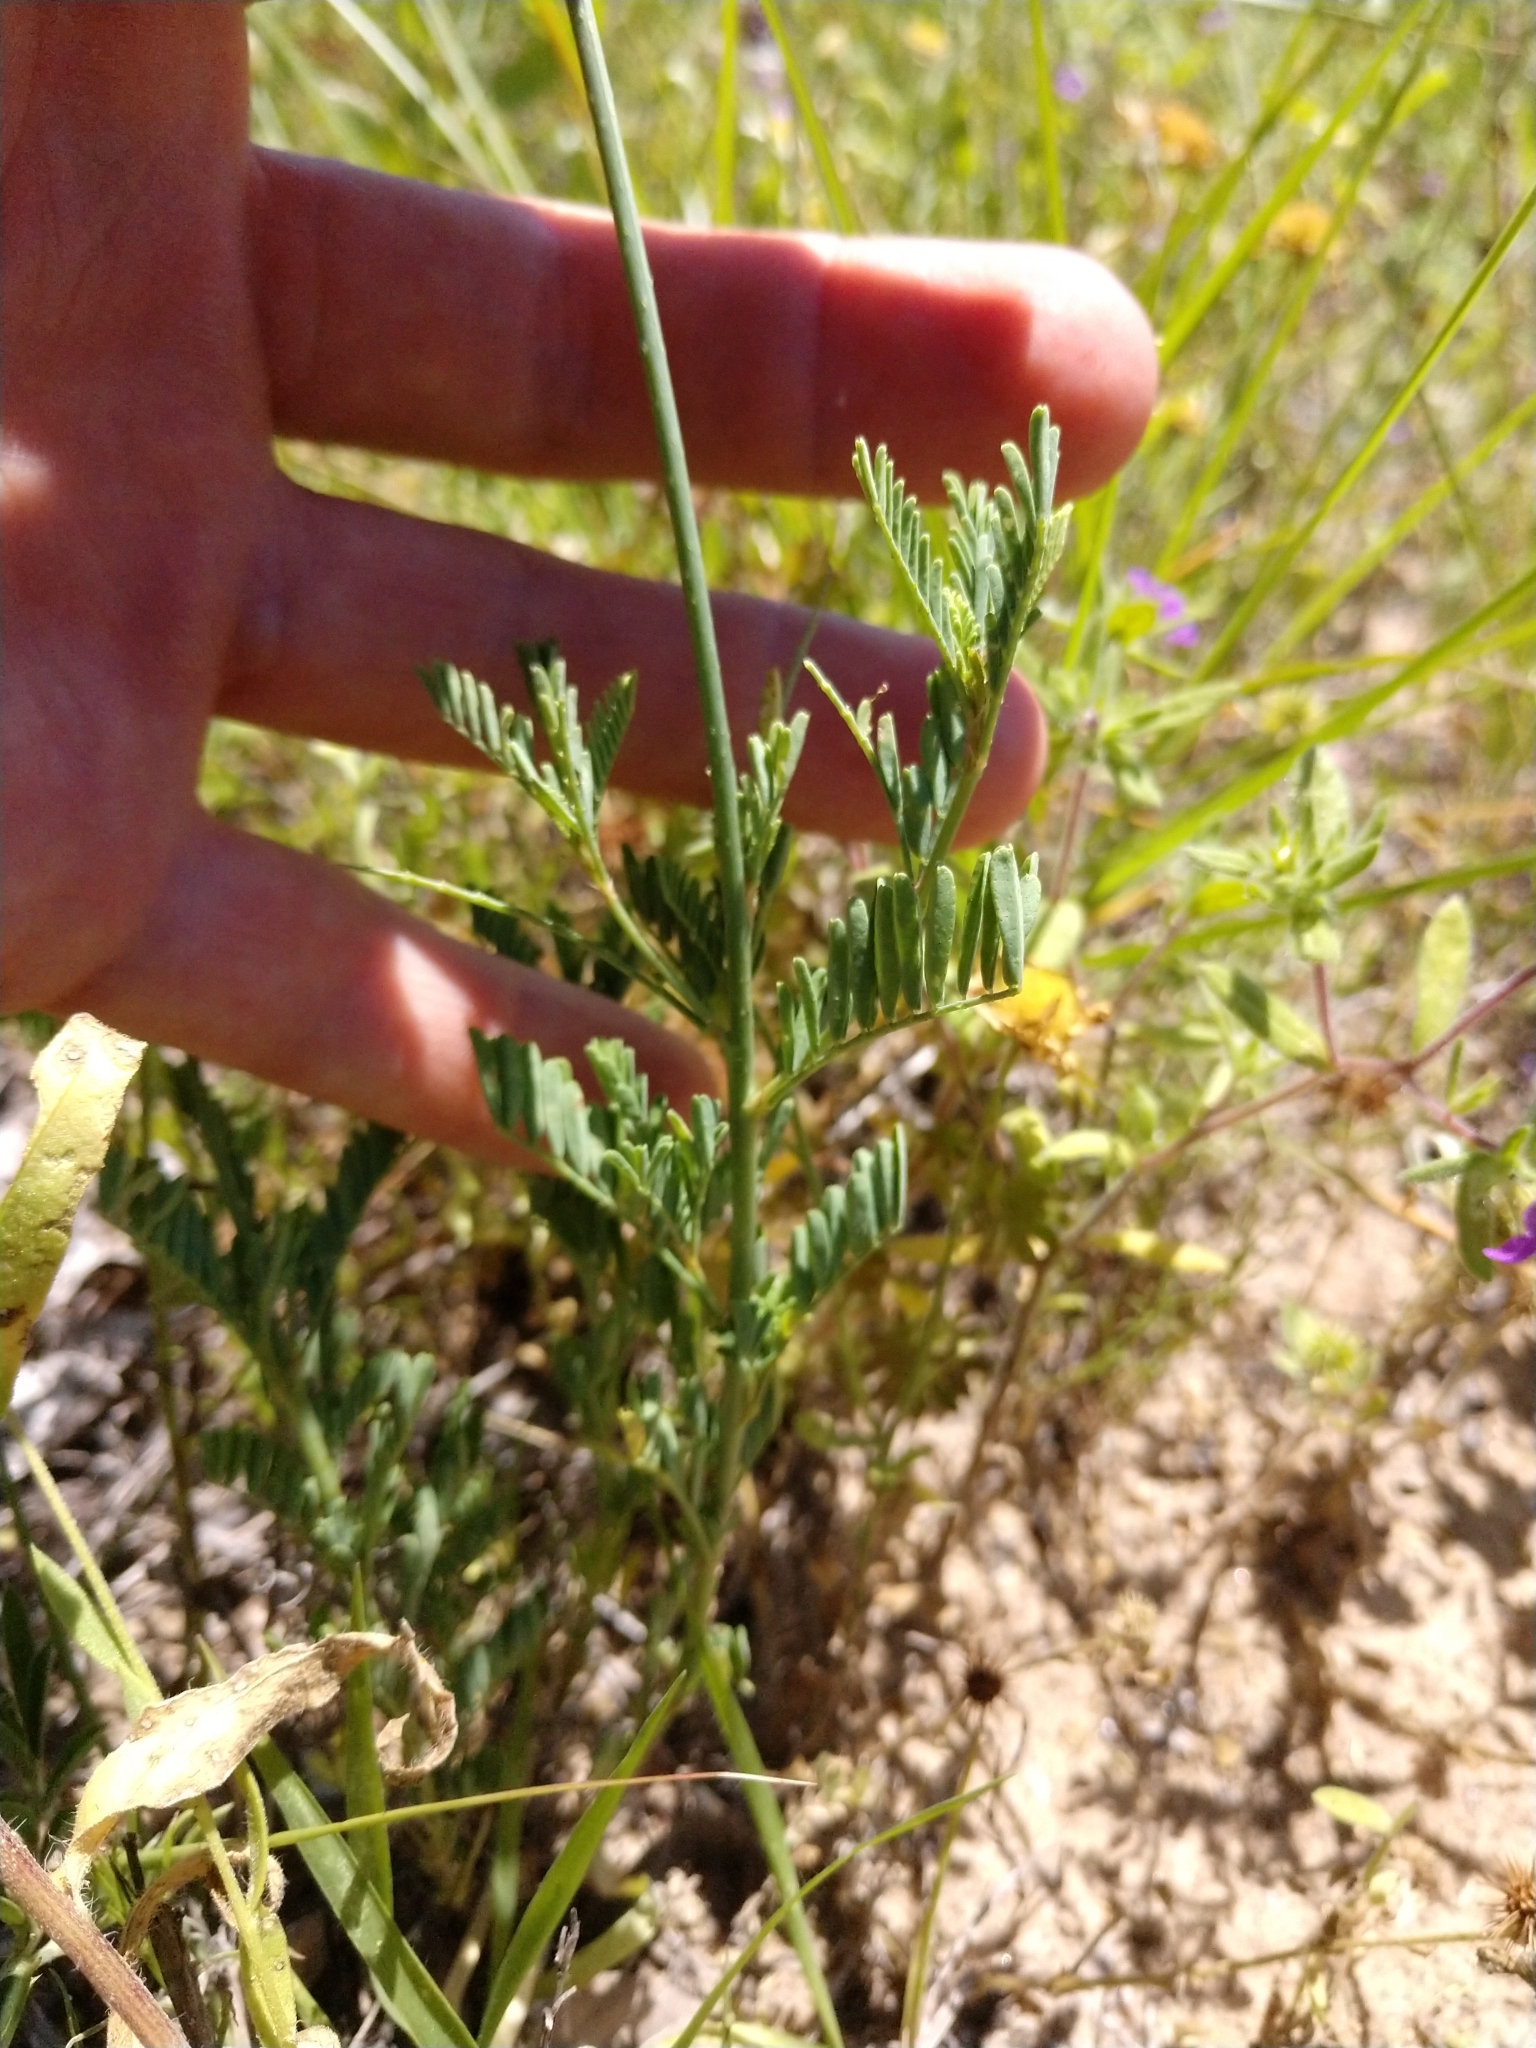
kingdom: Plantae
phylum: Tracheophyta
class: Magnoliopsida
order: Fabales
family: Fabaceae
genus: Dalea
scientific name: Dalea emarginata
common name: Wedgeleaf prairie clover
